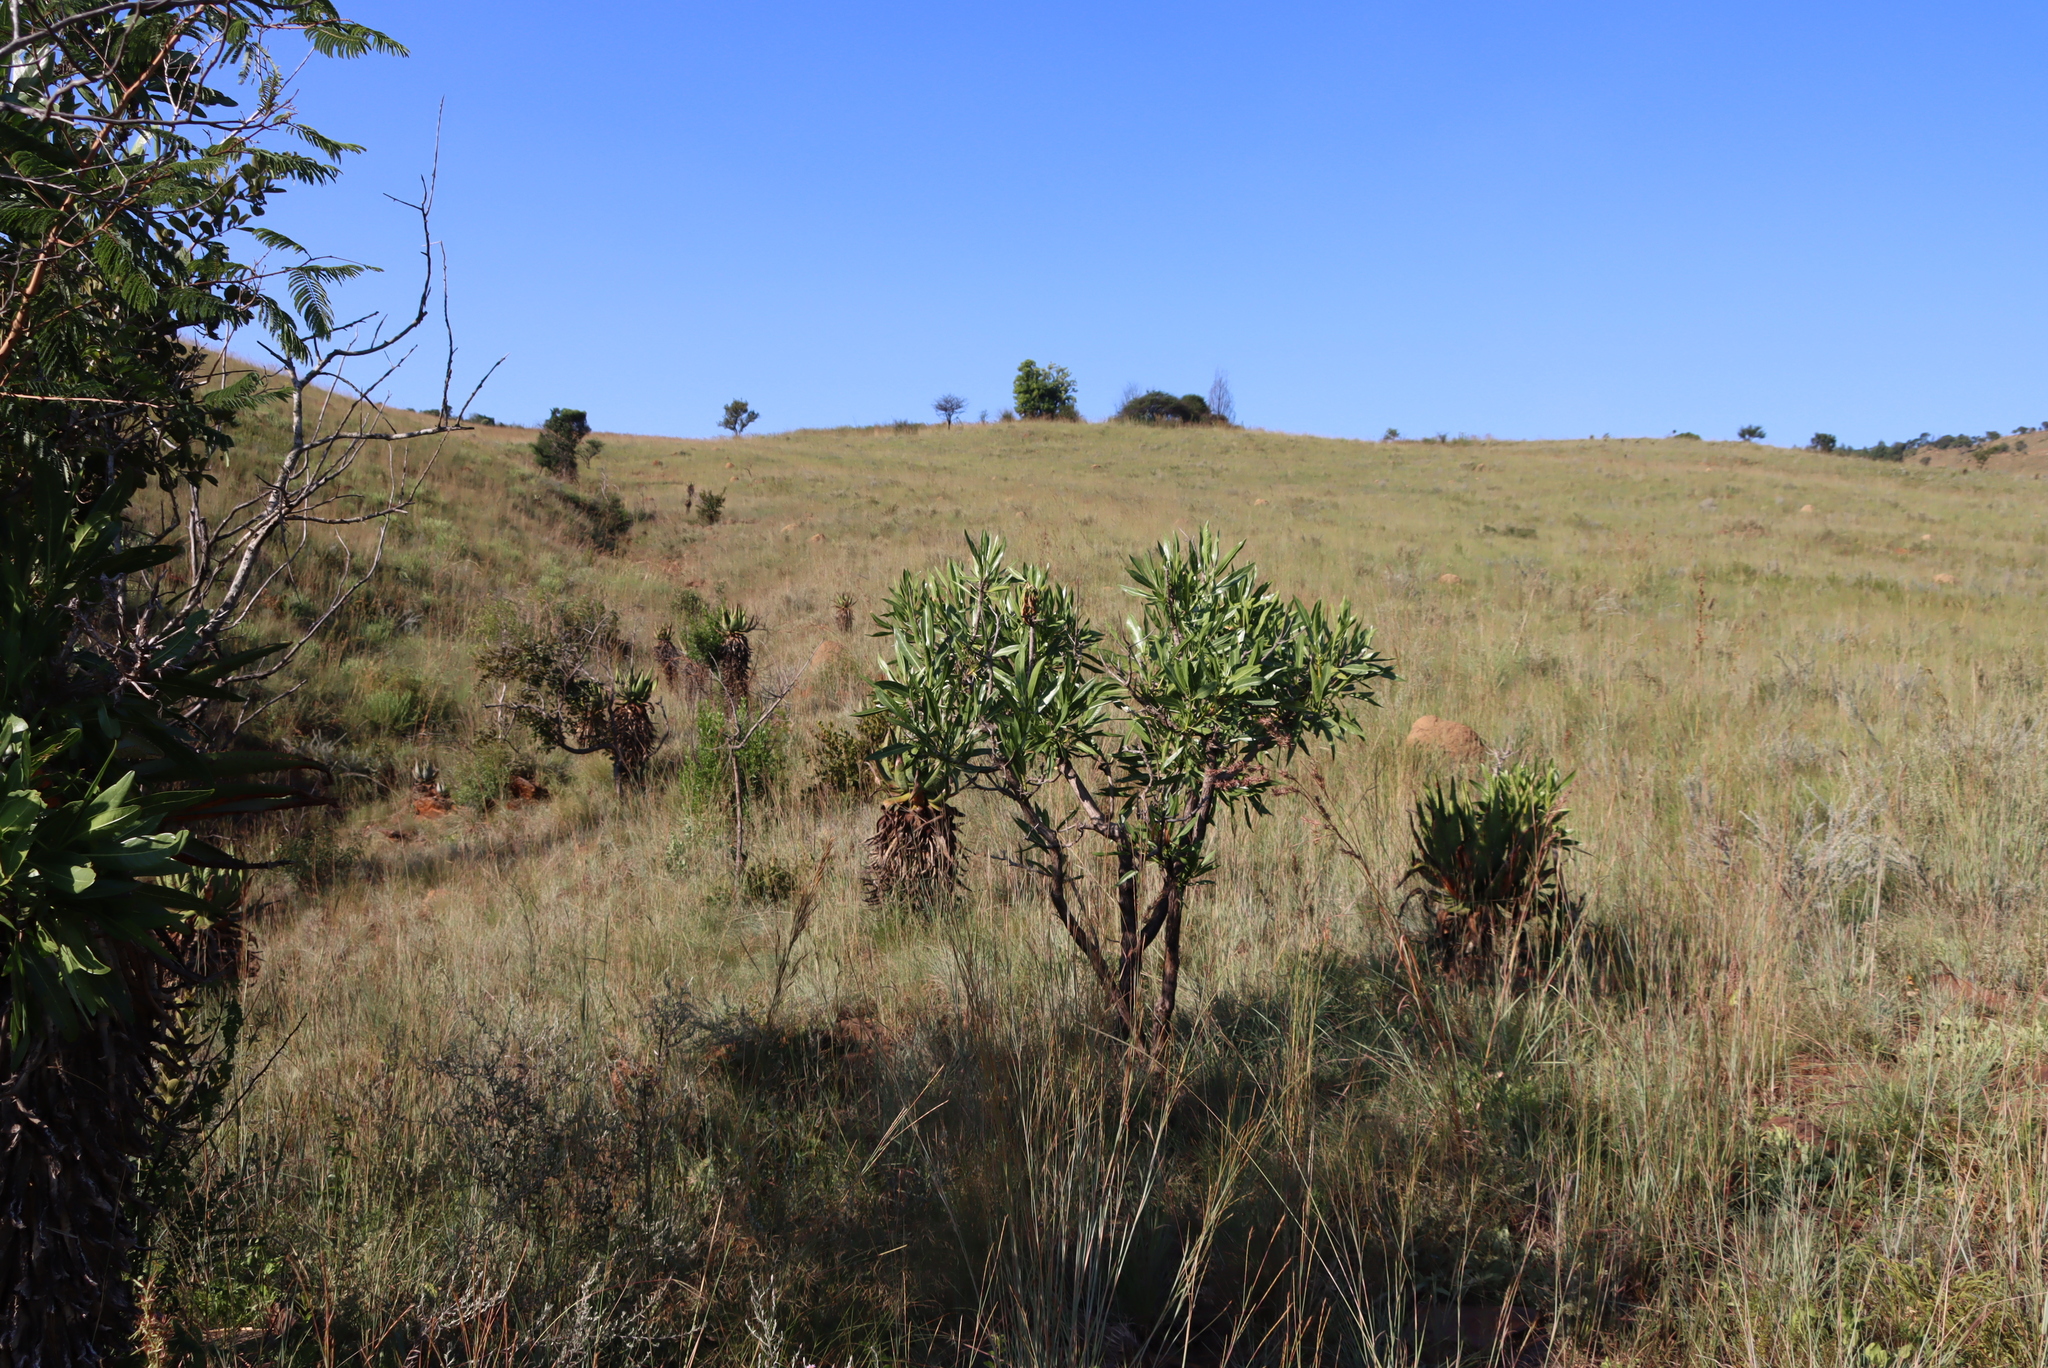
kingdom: Plantae
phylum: Tracheophyta
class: Magnoliopsida
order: Gentianales
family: Rubiaceae
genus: Pavetta
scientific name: Pavetta edentula
